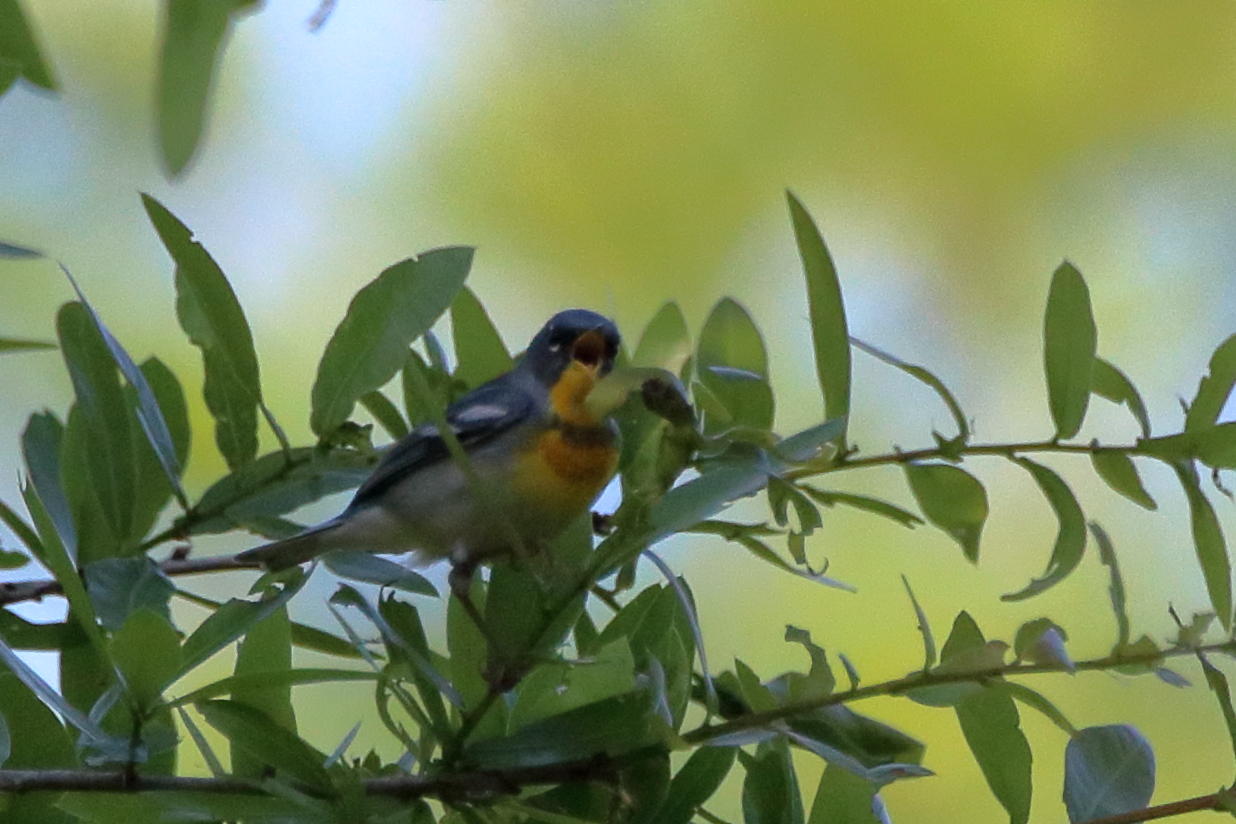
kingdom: Animalia
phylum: Chordata
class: Aves
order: Passeriformes
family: Parulidae
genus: Setophaga
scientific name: Setophaga americana
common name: Northern parula
